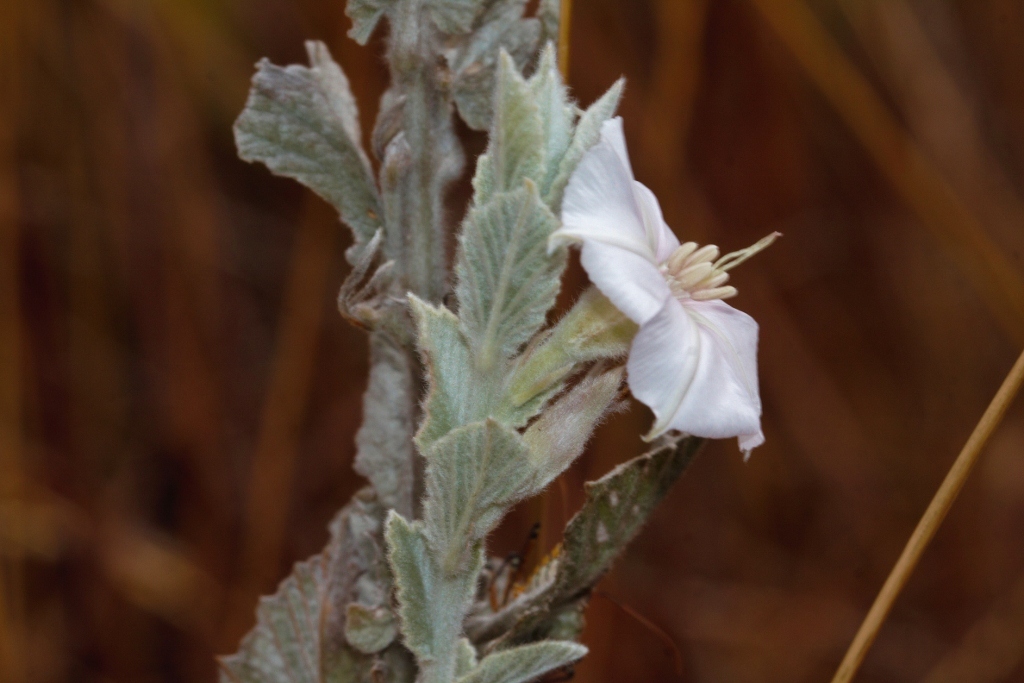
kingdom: Plantae
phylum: Tracheophyta
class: Magnoliopsida
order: Solanales
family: Convolvulaceae
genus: Convolvulus
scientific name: Convolvulus randii
